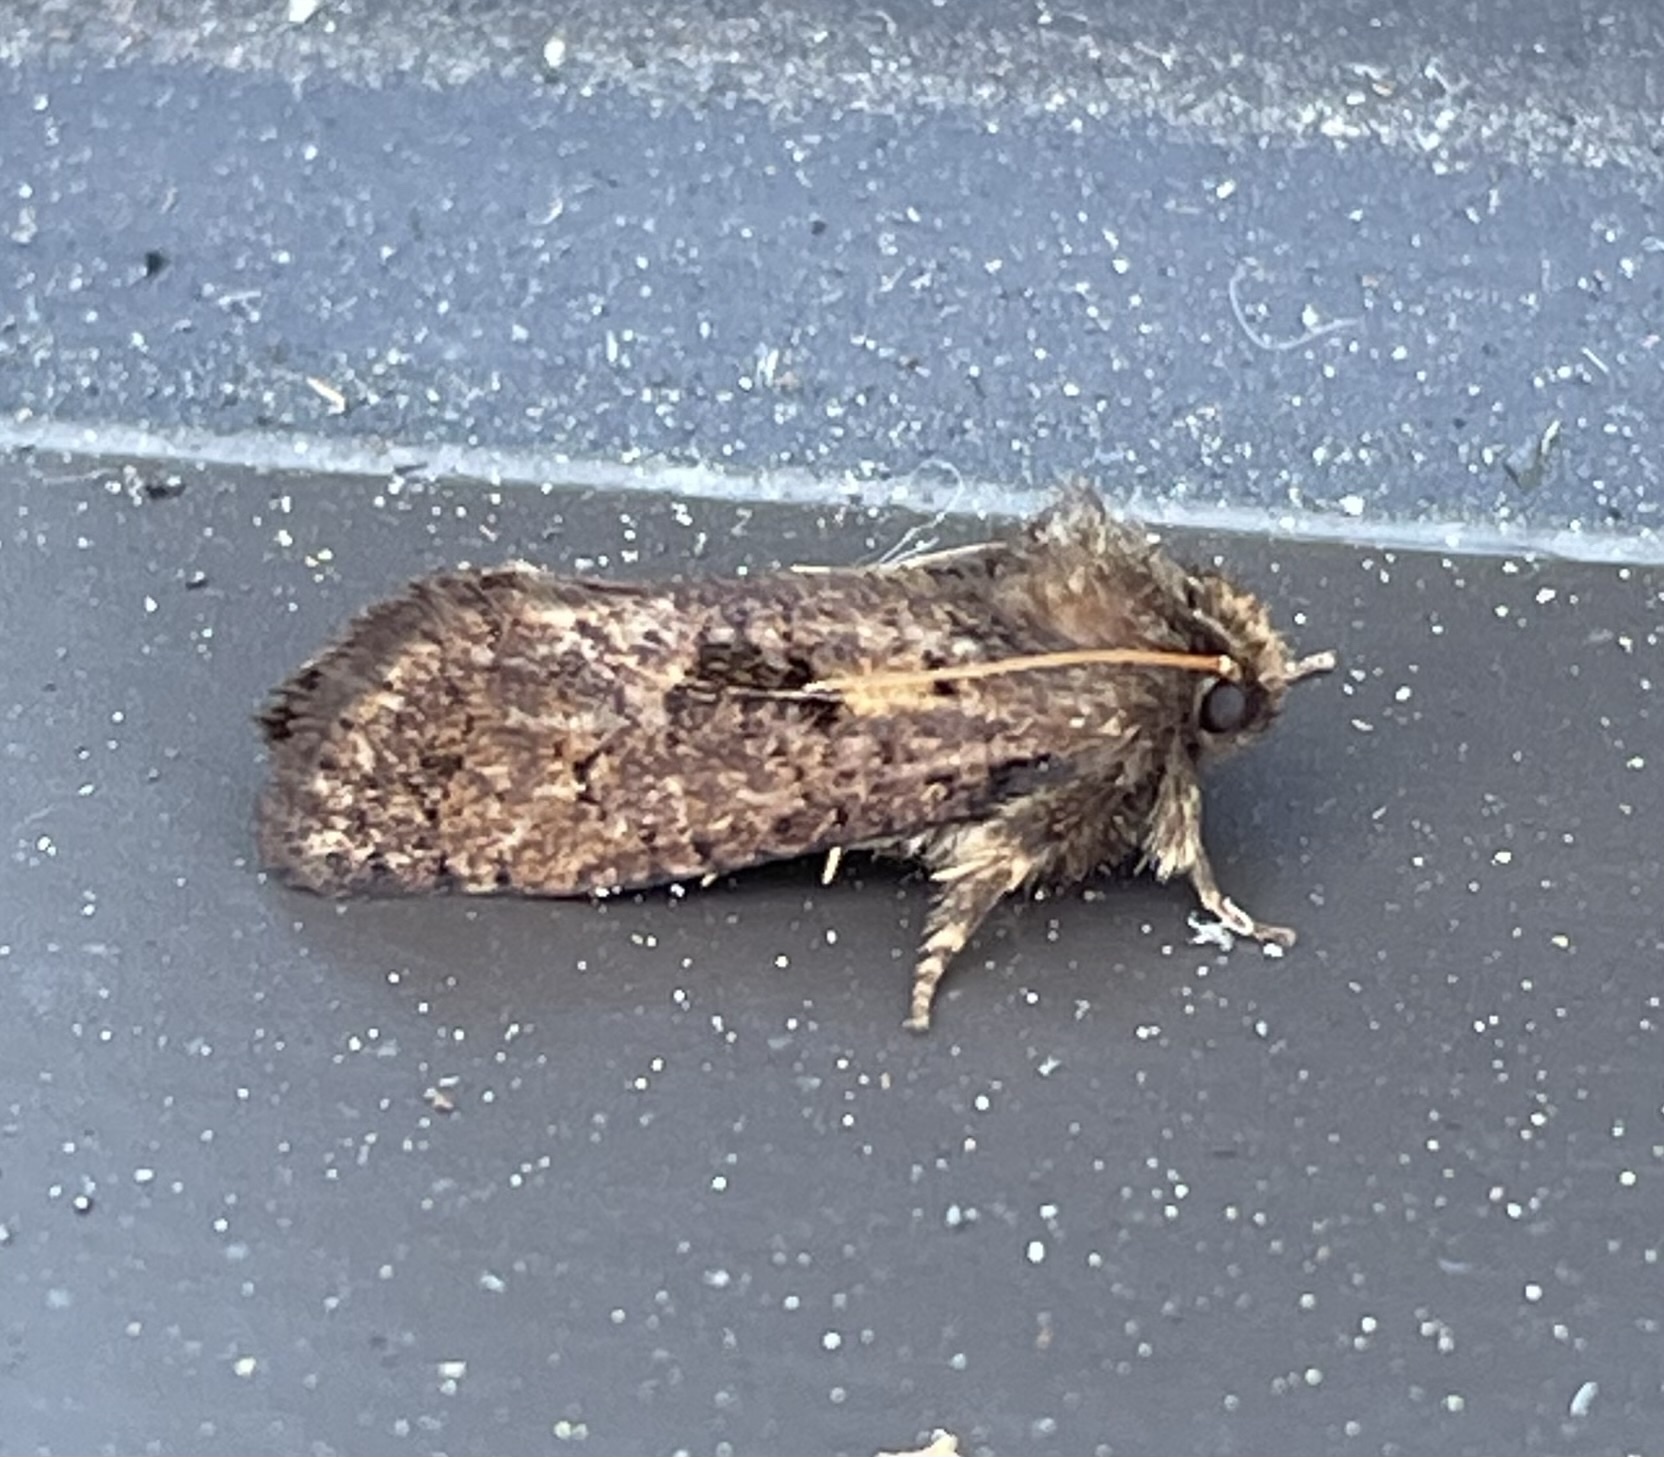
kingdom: Animalia
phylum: Arthropoda
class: Insecta
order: Lepidoptera
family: Tineidae
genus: Acrolophus
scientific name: Acrolophus mora
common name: Dark acrolophus
